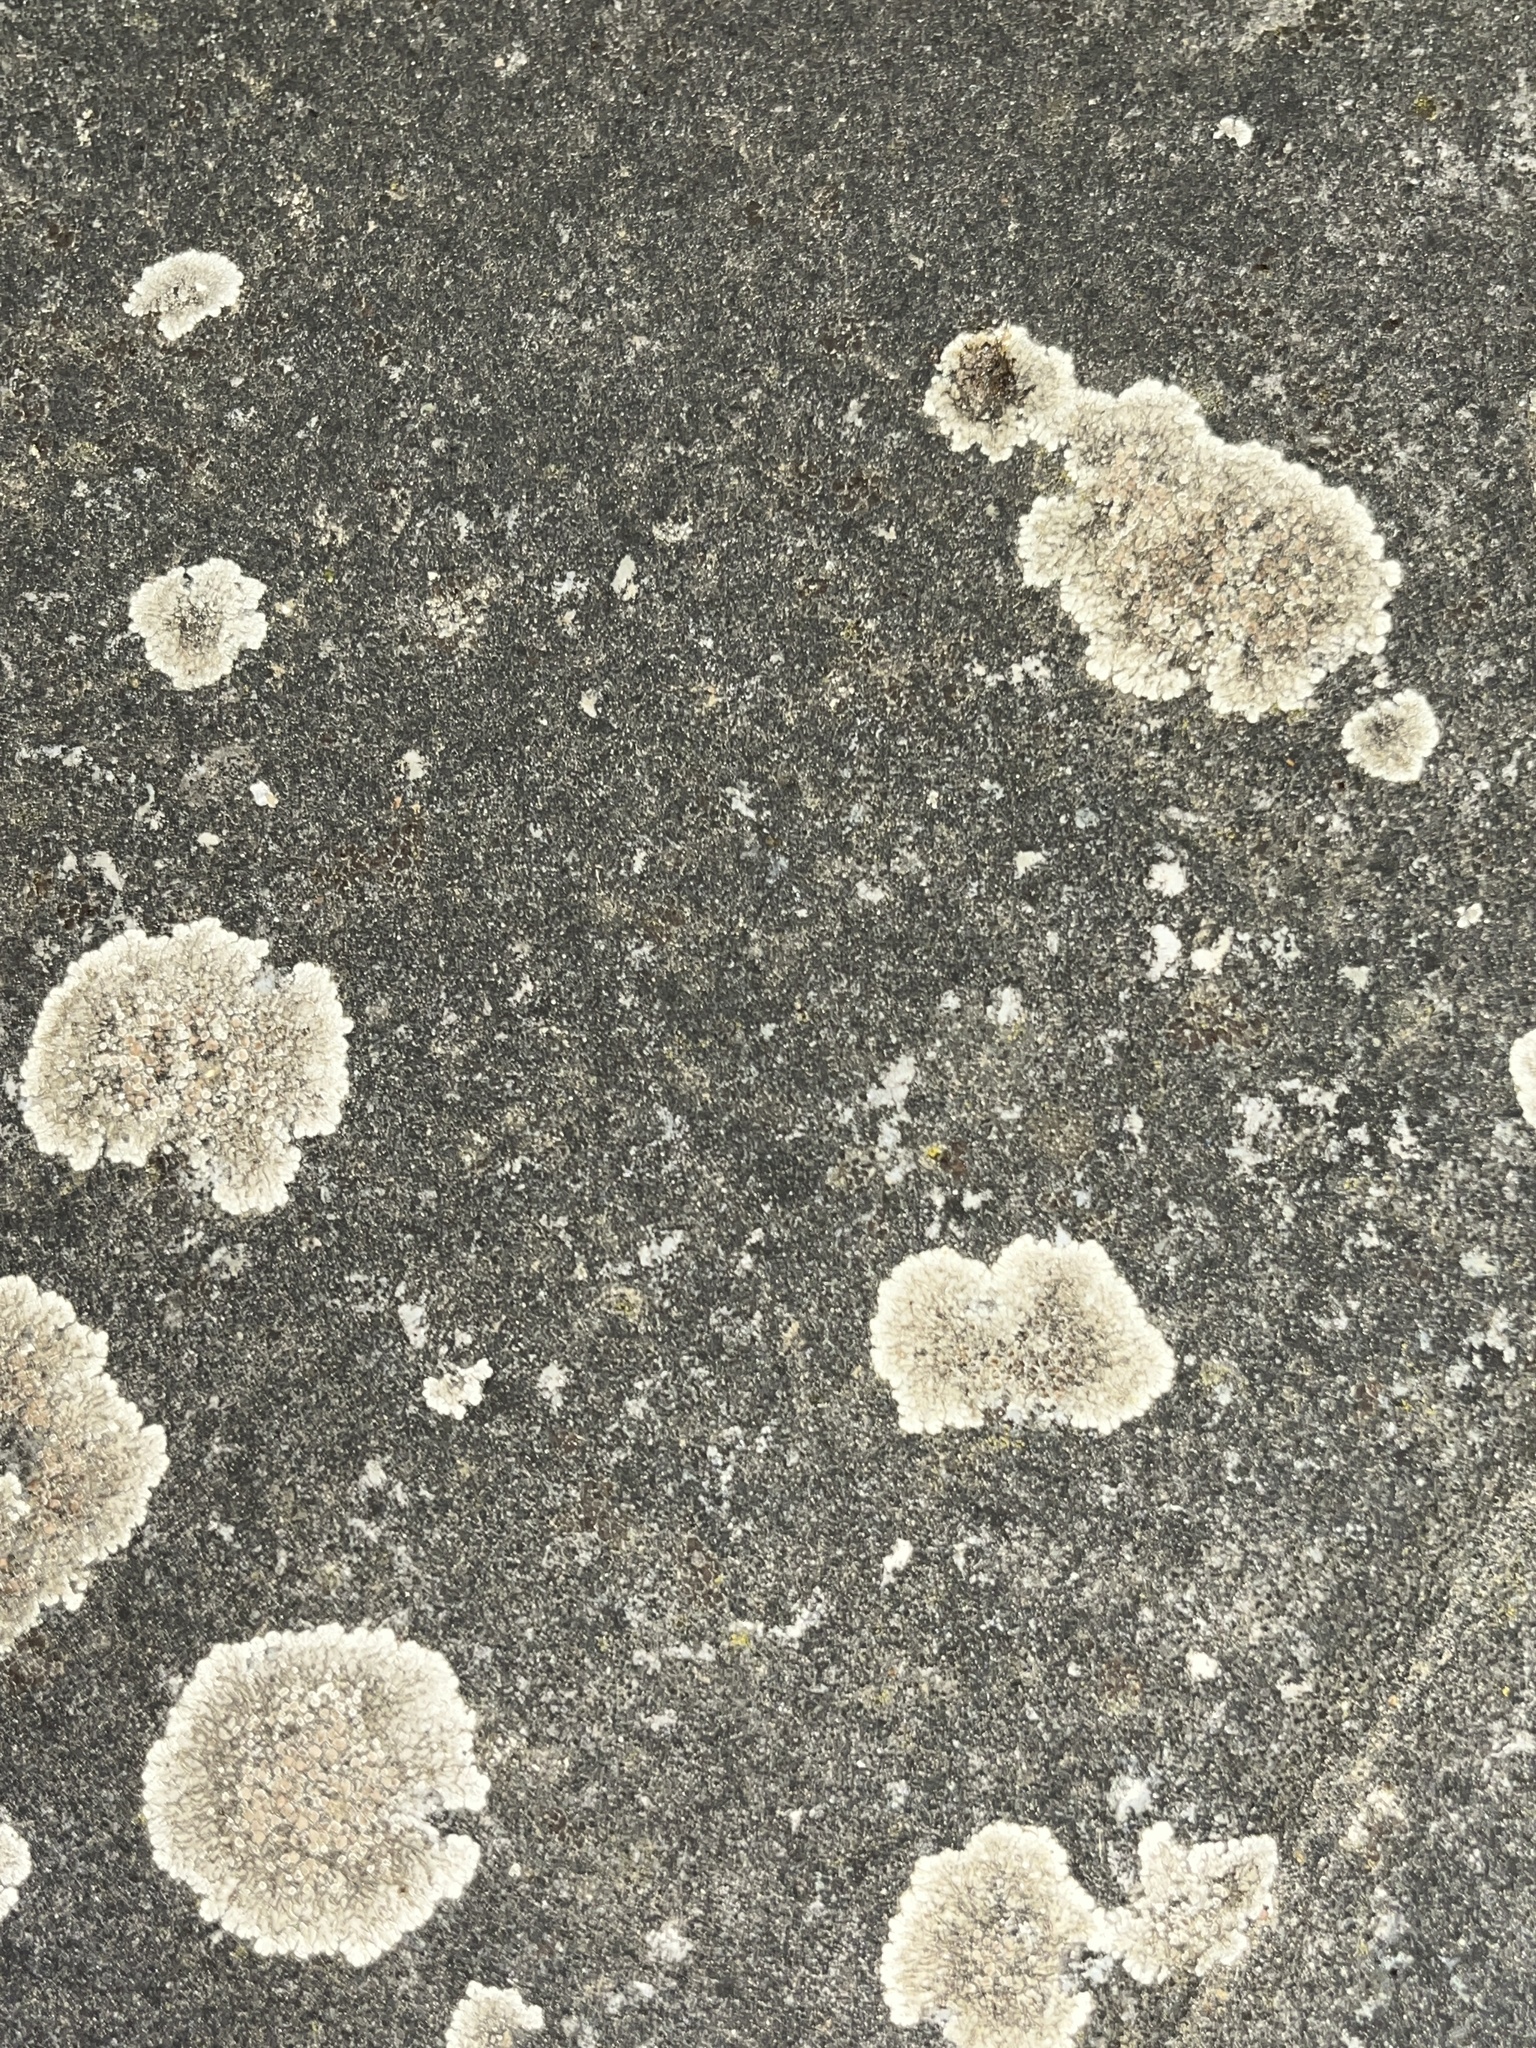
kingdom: Fungi
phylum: Ascomycota
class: Lecanoromycetes
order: Lecanorales
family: Lecanoraceae
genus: Protoparmeliopsis
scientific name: Protoparmeliopsis muralis
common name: Stonewall rim lichen
